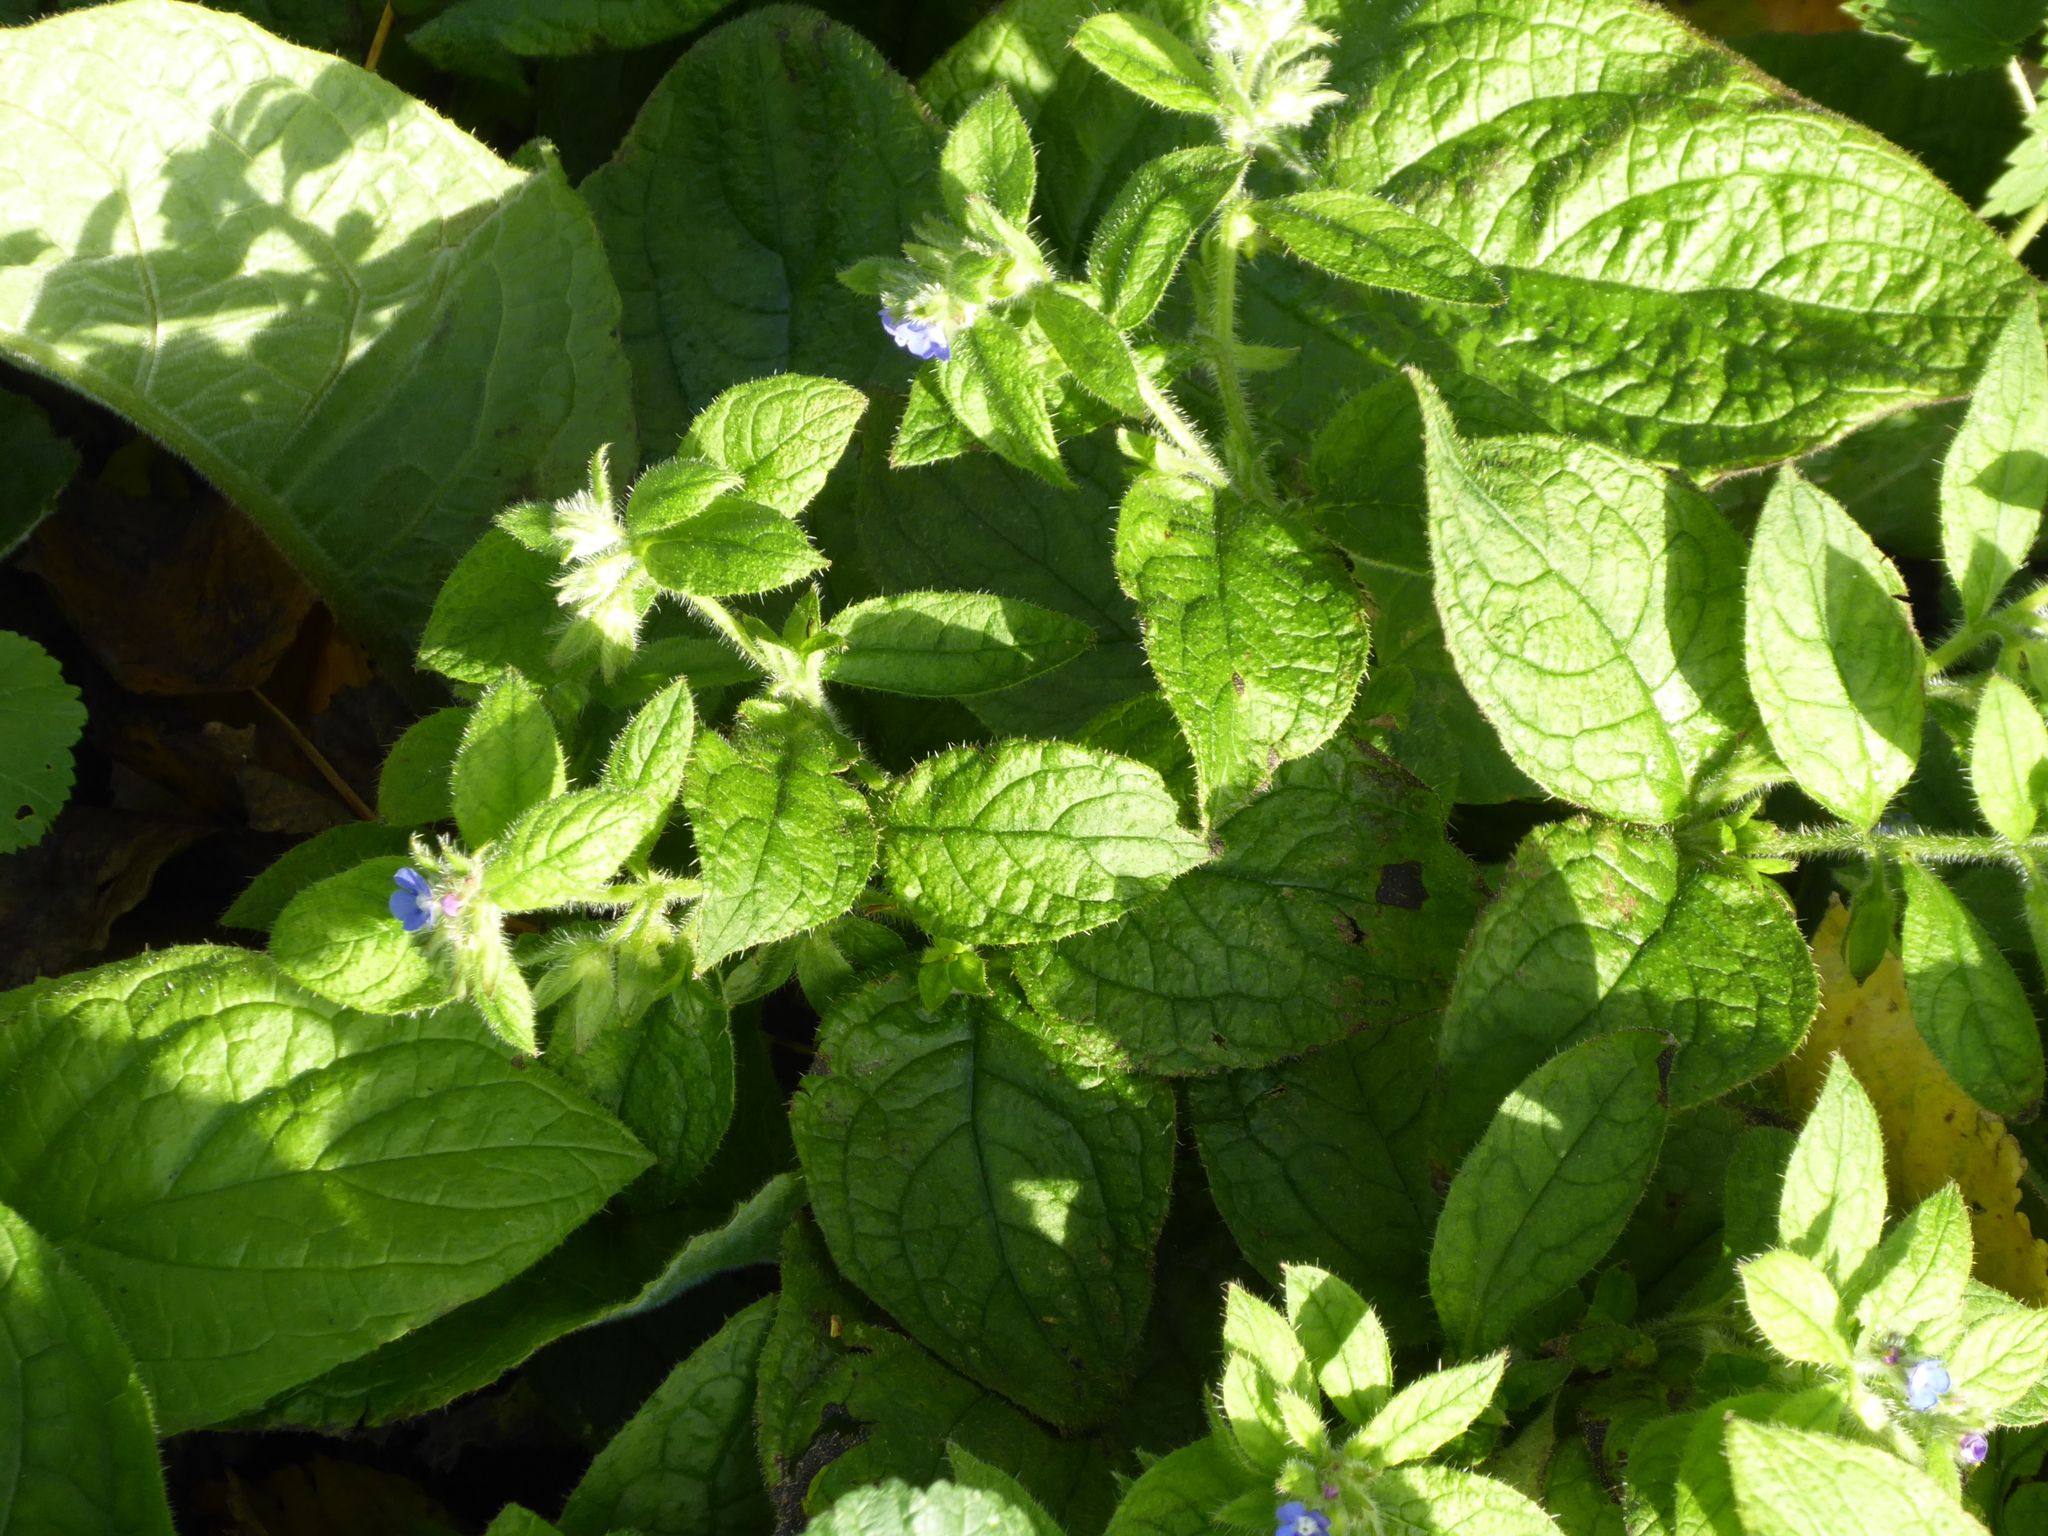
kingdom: Plantae
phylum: Tracheophyta
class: Magnoliopsida
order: Boraginales
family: Boraginaceae
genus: Pentaglottis
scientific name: Pentaglottis sempervirens
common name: Green alkanet
